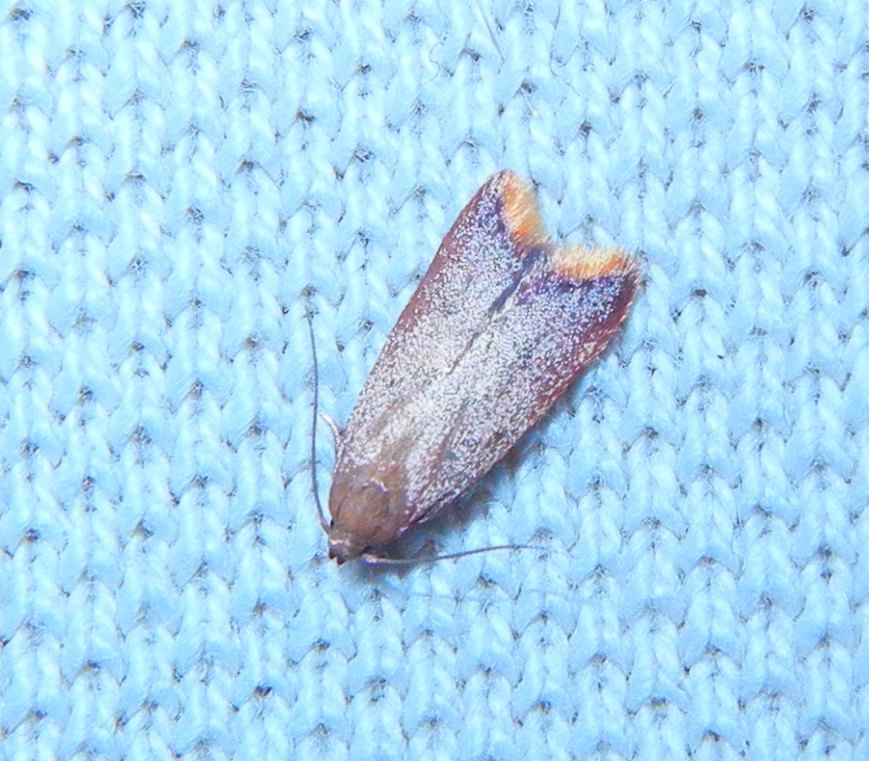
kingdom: Animalia
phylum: Arthropoda
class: Insecta
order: Lepidoptera
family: Oecophoridae
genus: Tachystola
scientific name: Tachystola acroxantha
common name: Ruddy streak
